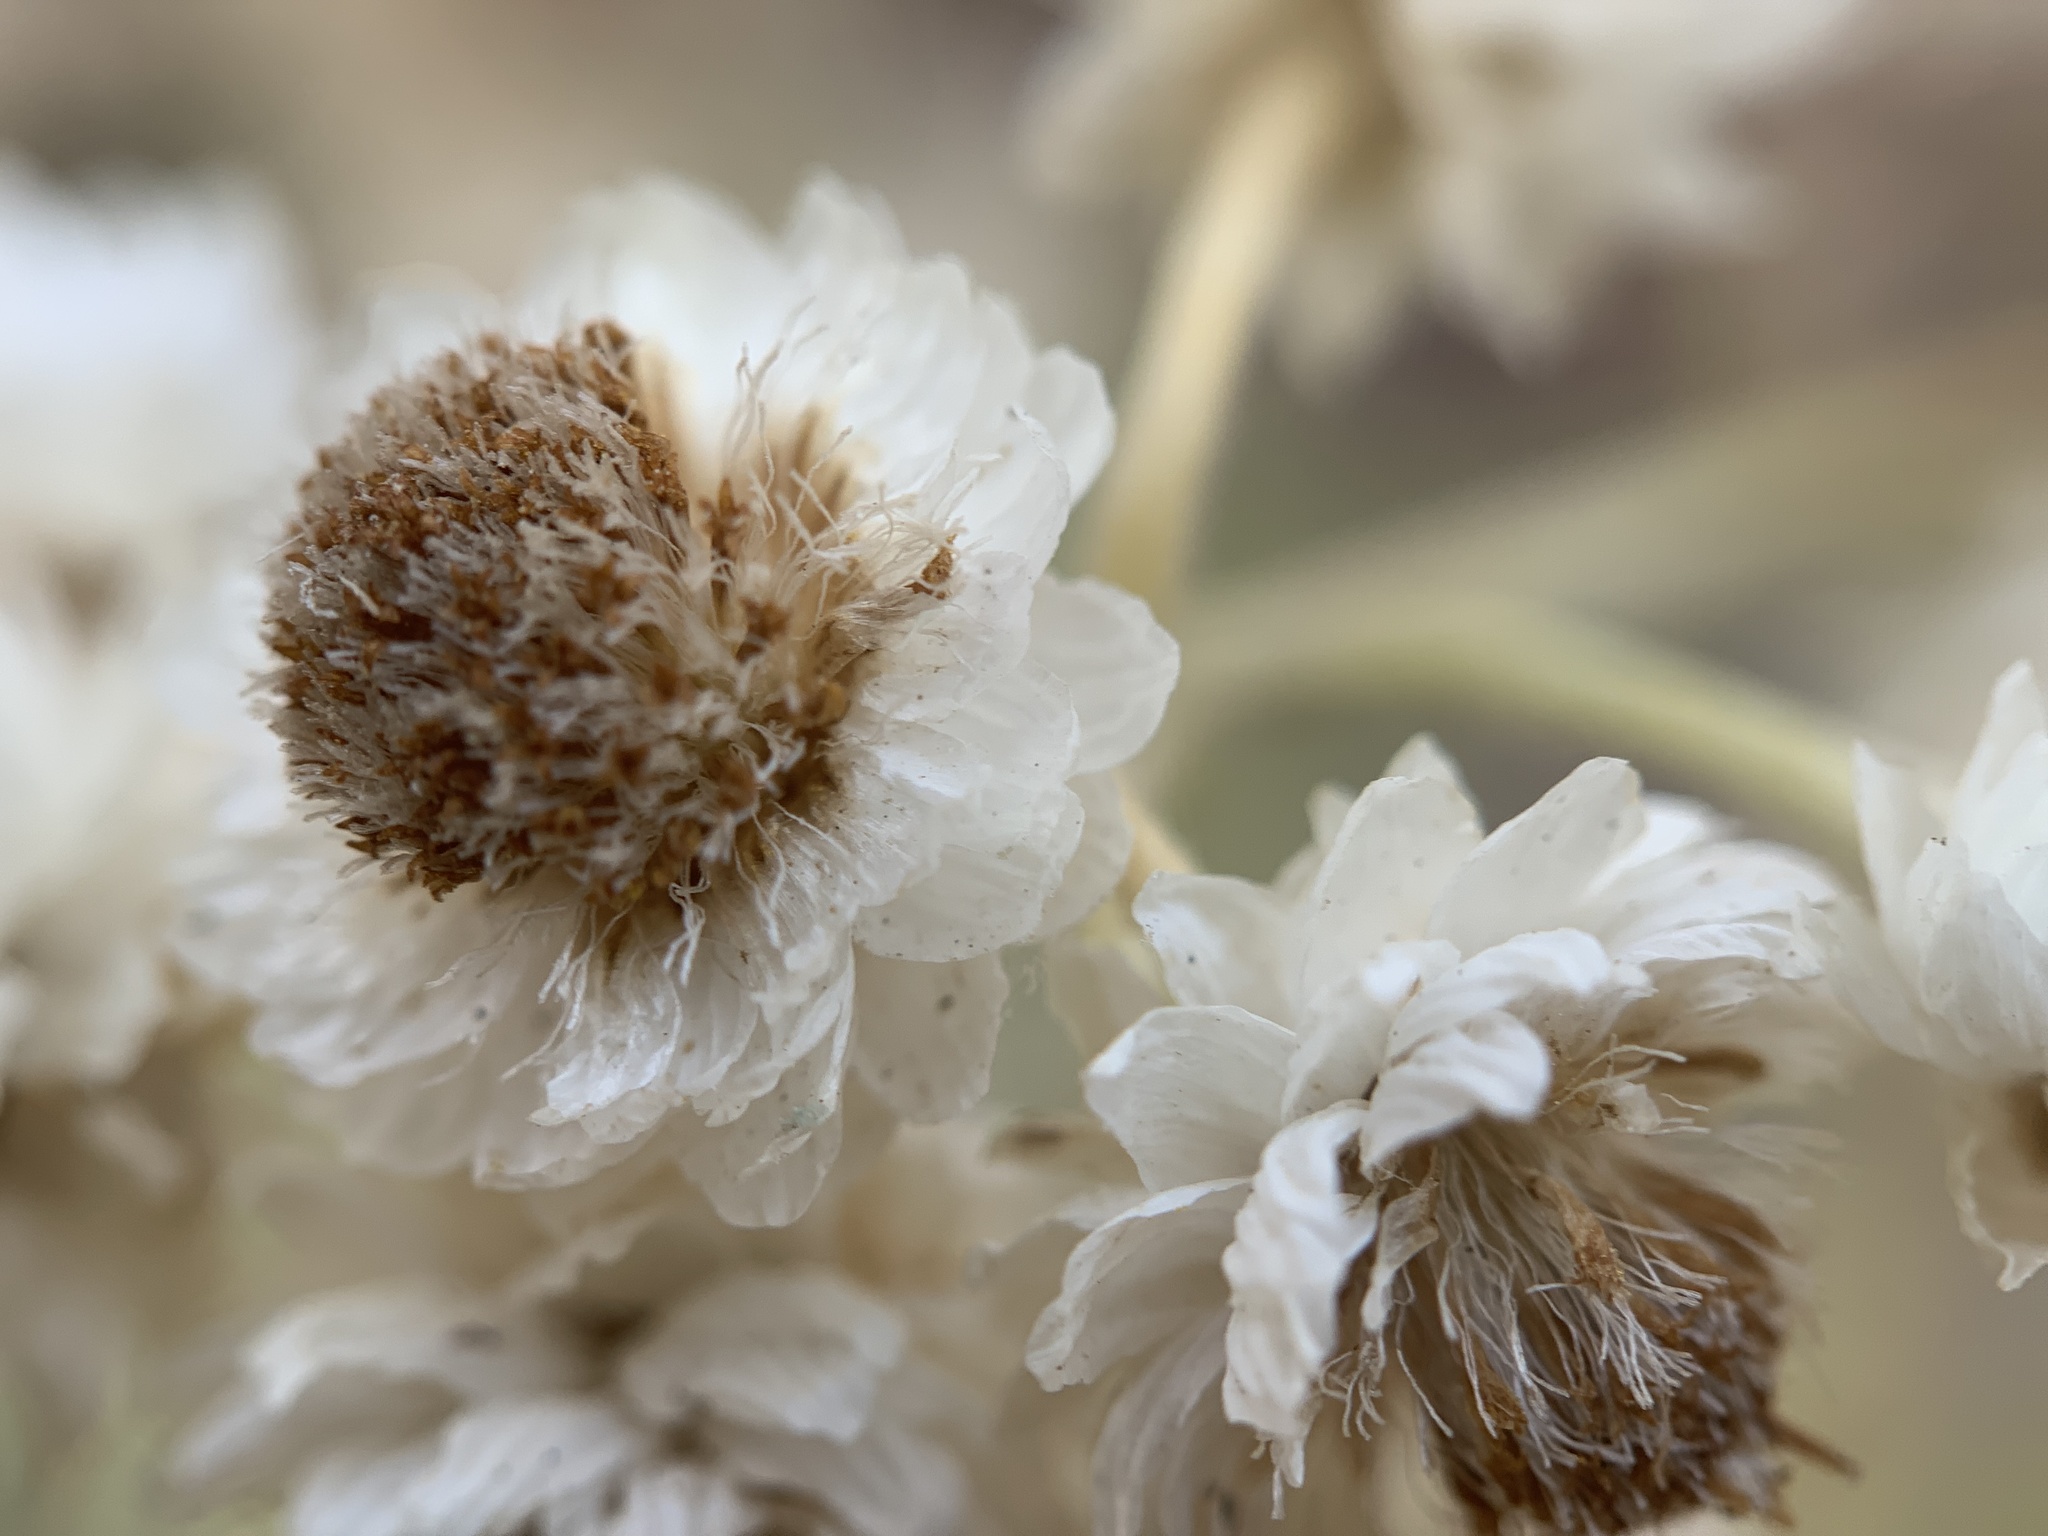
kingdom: Plantae
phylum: Tracheophyta
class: Magnoliopsida
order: Asterales
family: Asteraceae
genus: Anaphalis
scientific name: Anaphalis margaritacea
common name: Pearly everlasting
